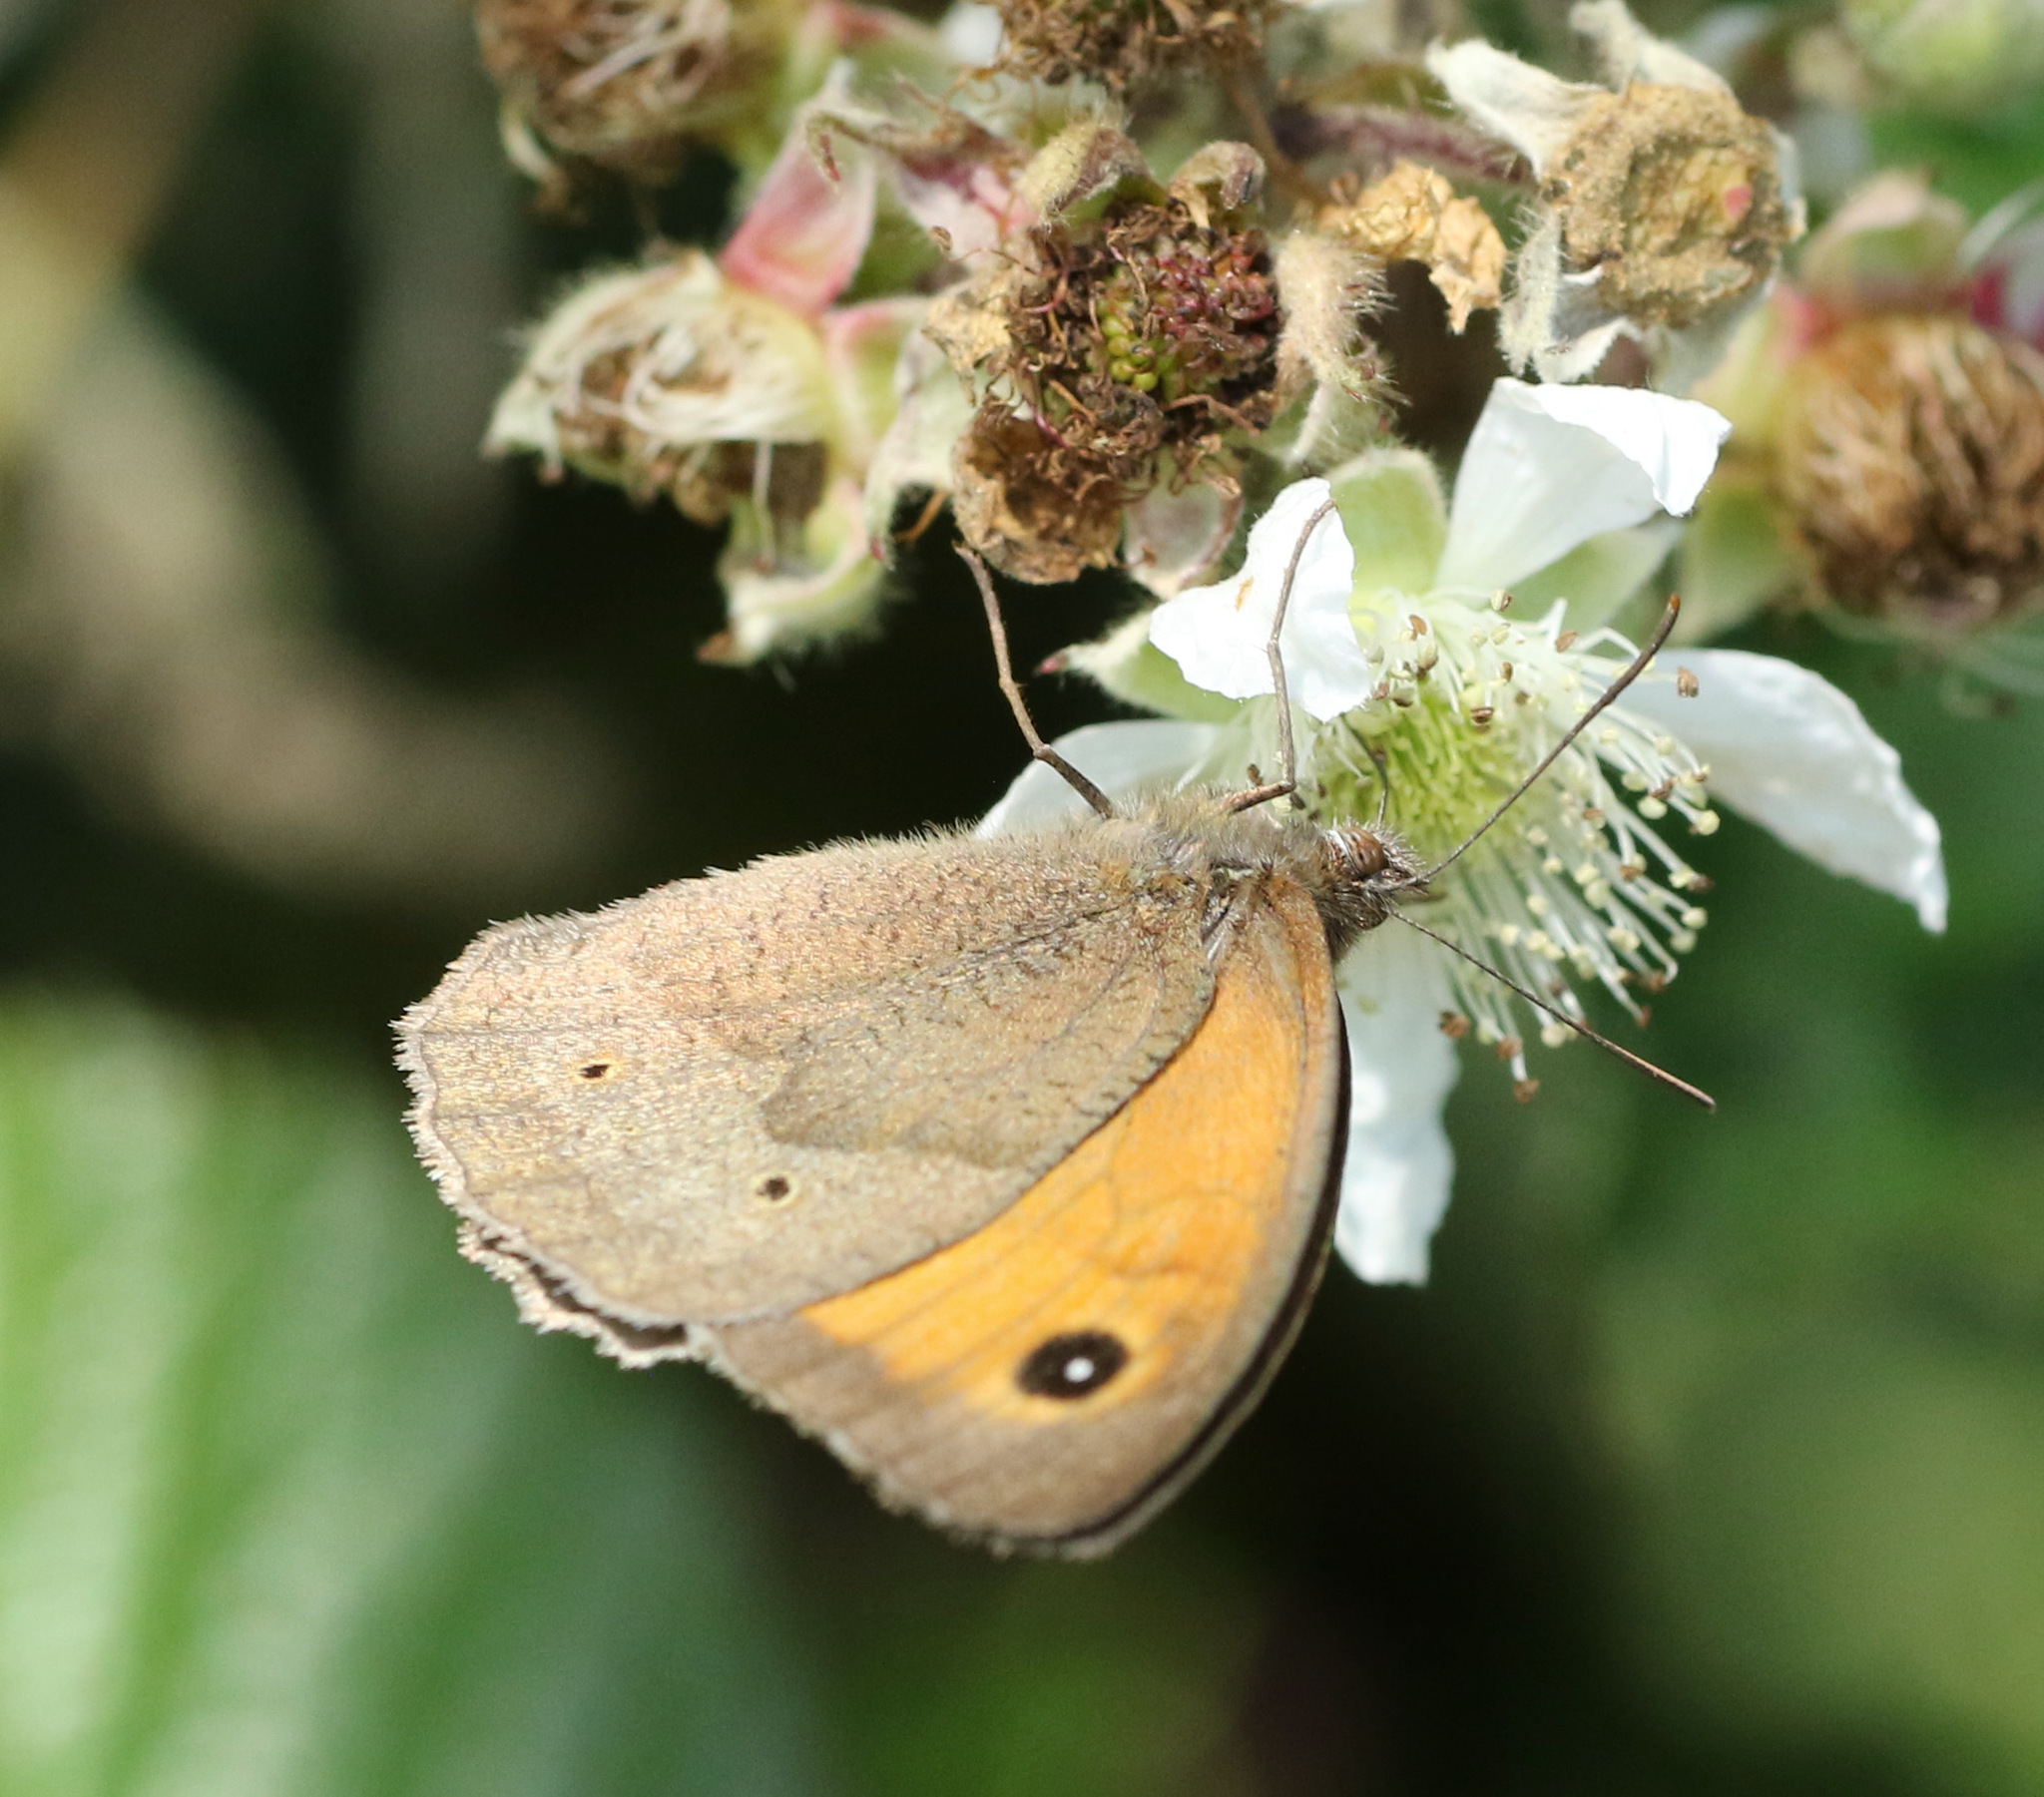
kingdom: Animalia
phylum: Arthropoda
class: Insecta
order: Lepidoptera
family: Nymphalidae
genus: Maniola
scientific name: Maniola jurtina
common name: Meadow brown
